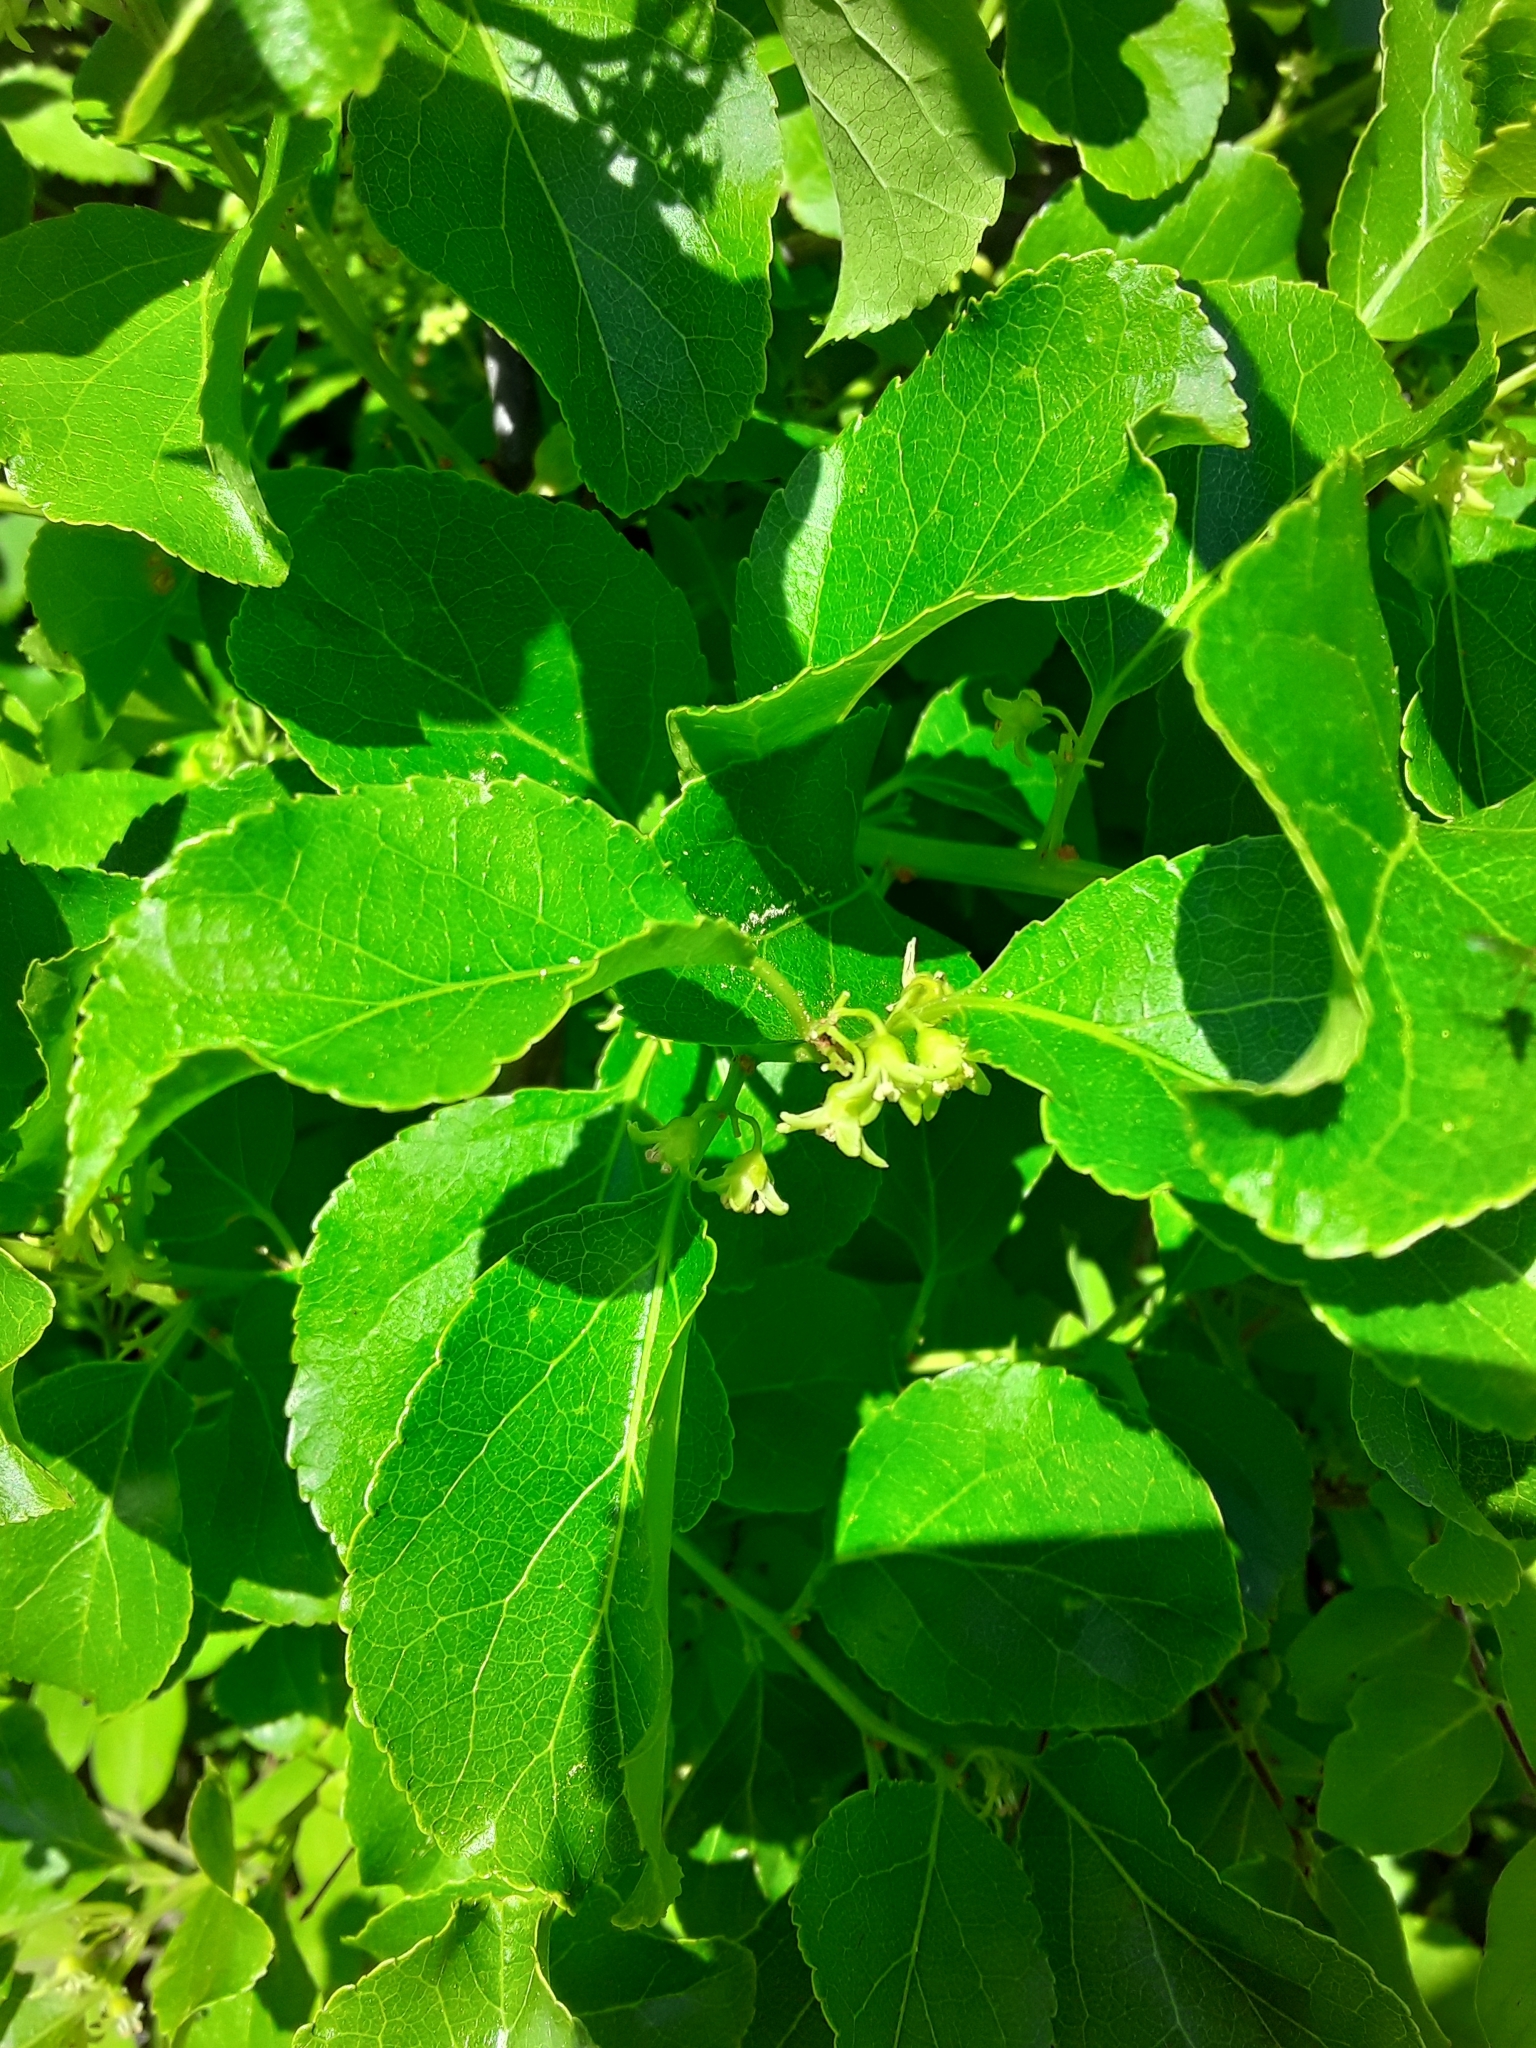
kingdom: Plantae
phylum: Tracheophyta
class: Magnoliopsida
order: Celastrales
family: Celastraceae
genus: Celastrus
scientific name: Celastrus orbiculatus
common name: Oriental bittersweet
